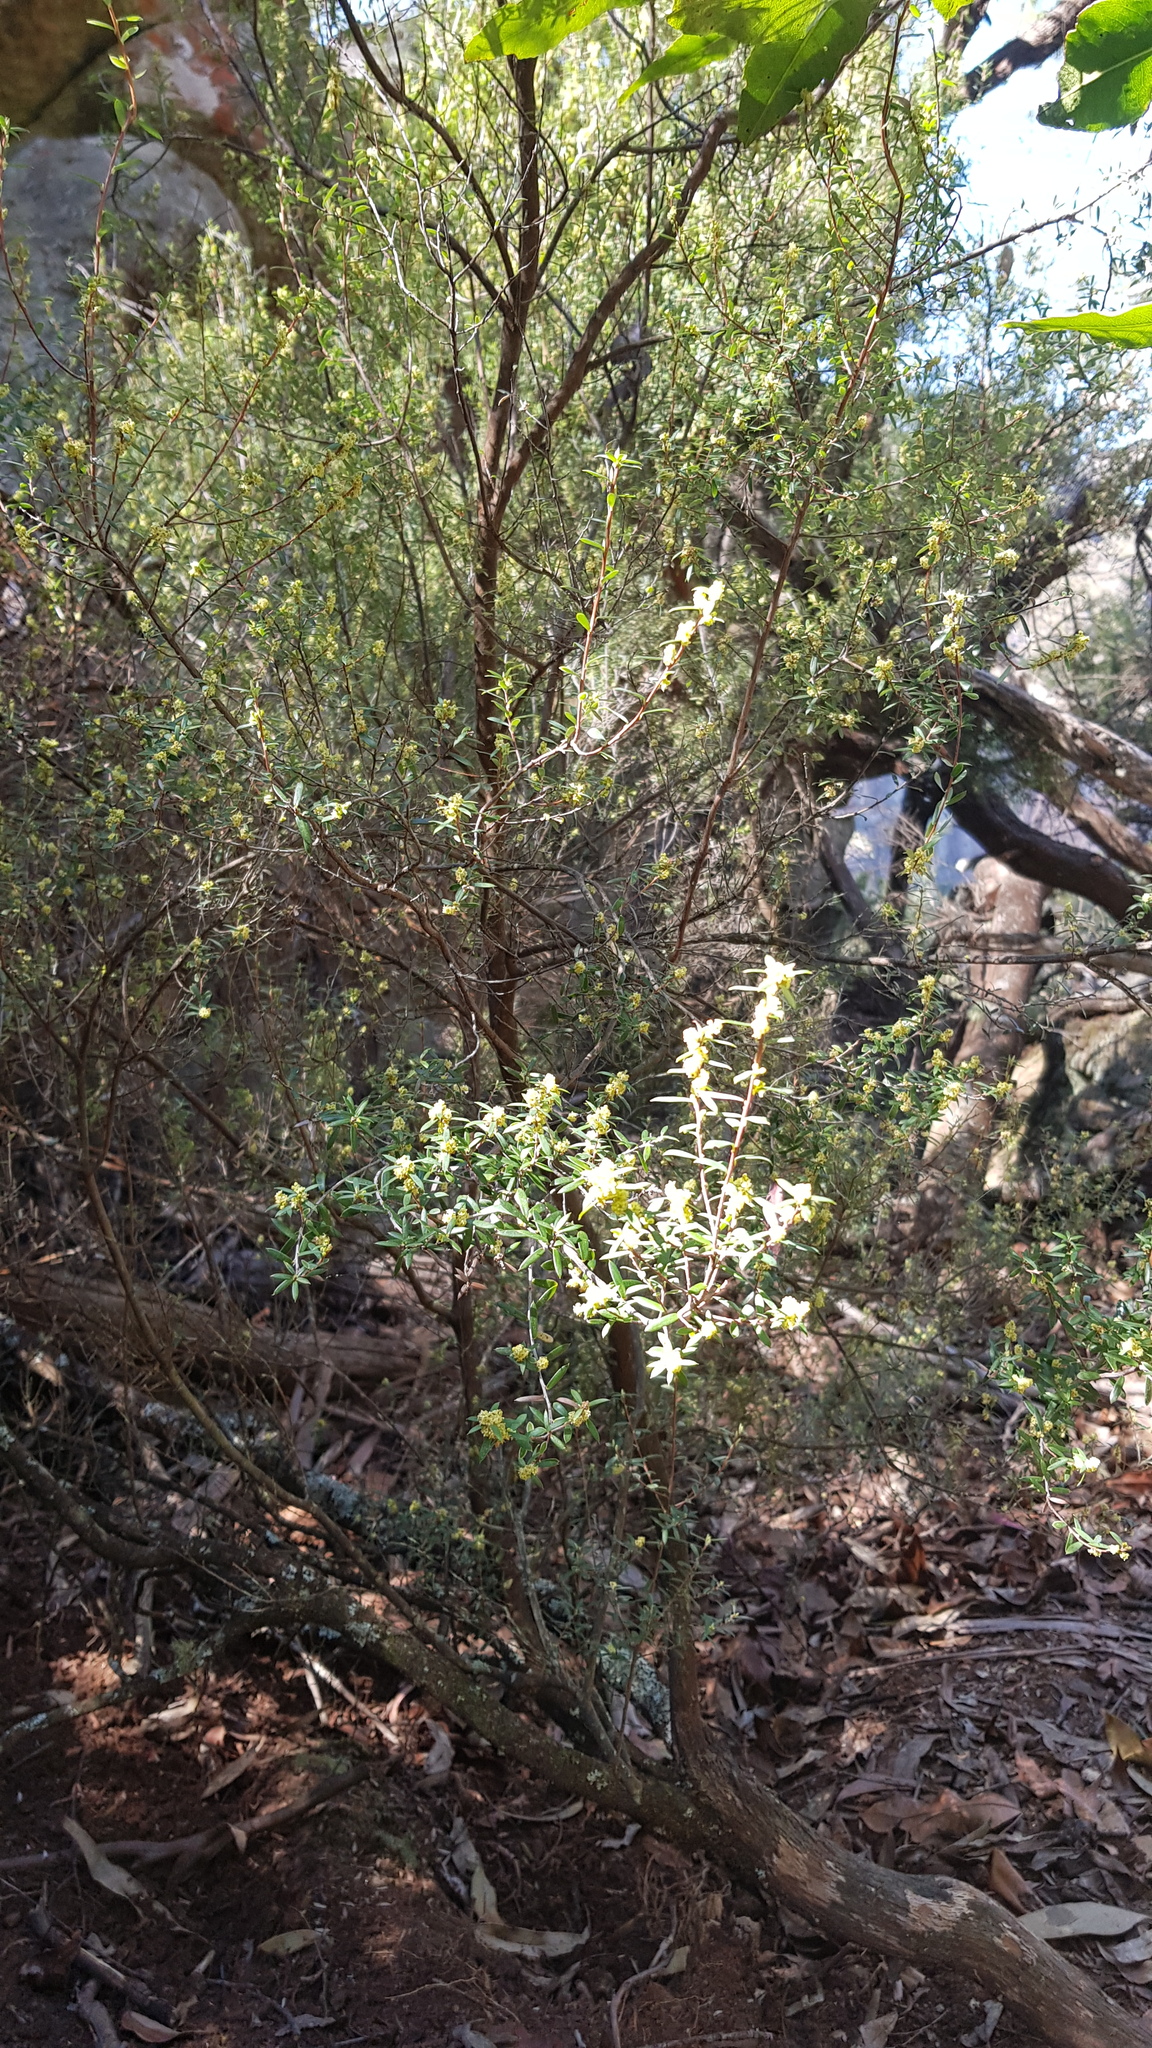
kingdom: Plantae
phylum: Tracheophyta
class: Magnoliopsida
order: Ericales
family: Ericaceae
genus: Monotoca
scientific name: Monotoca elliptica
